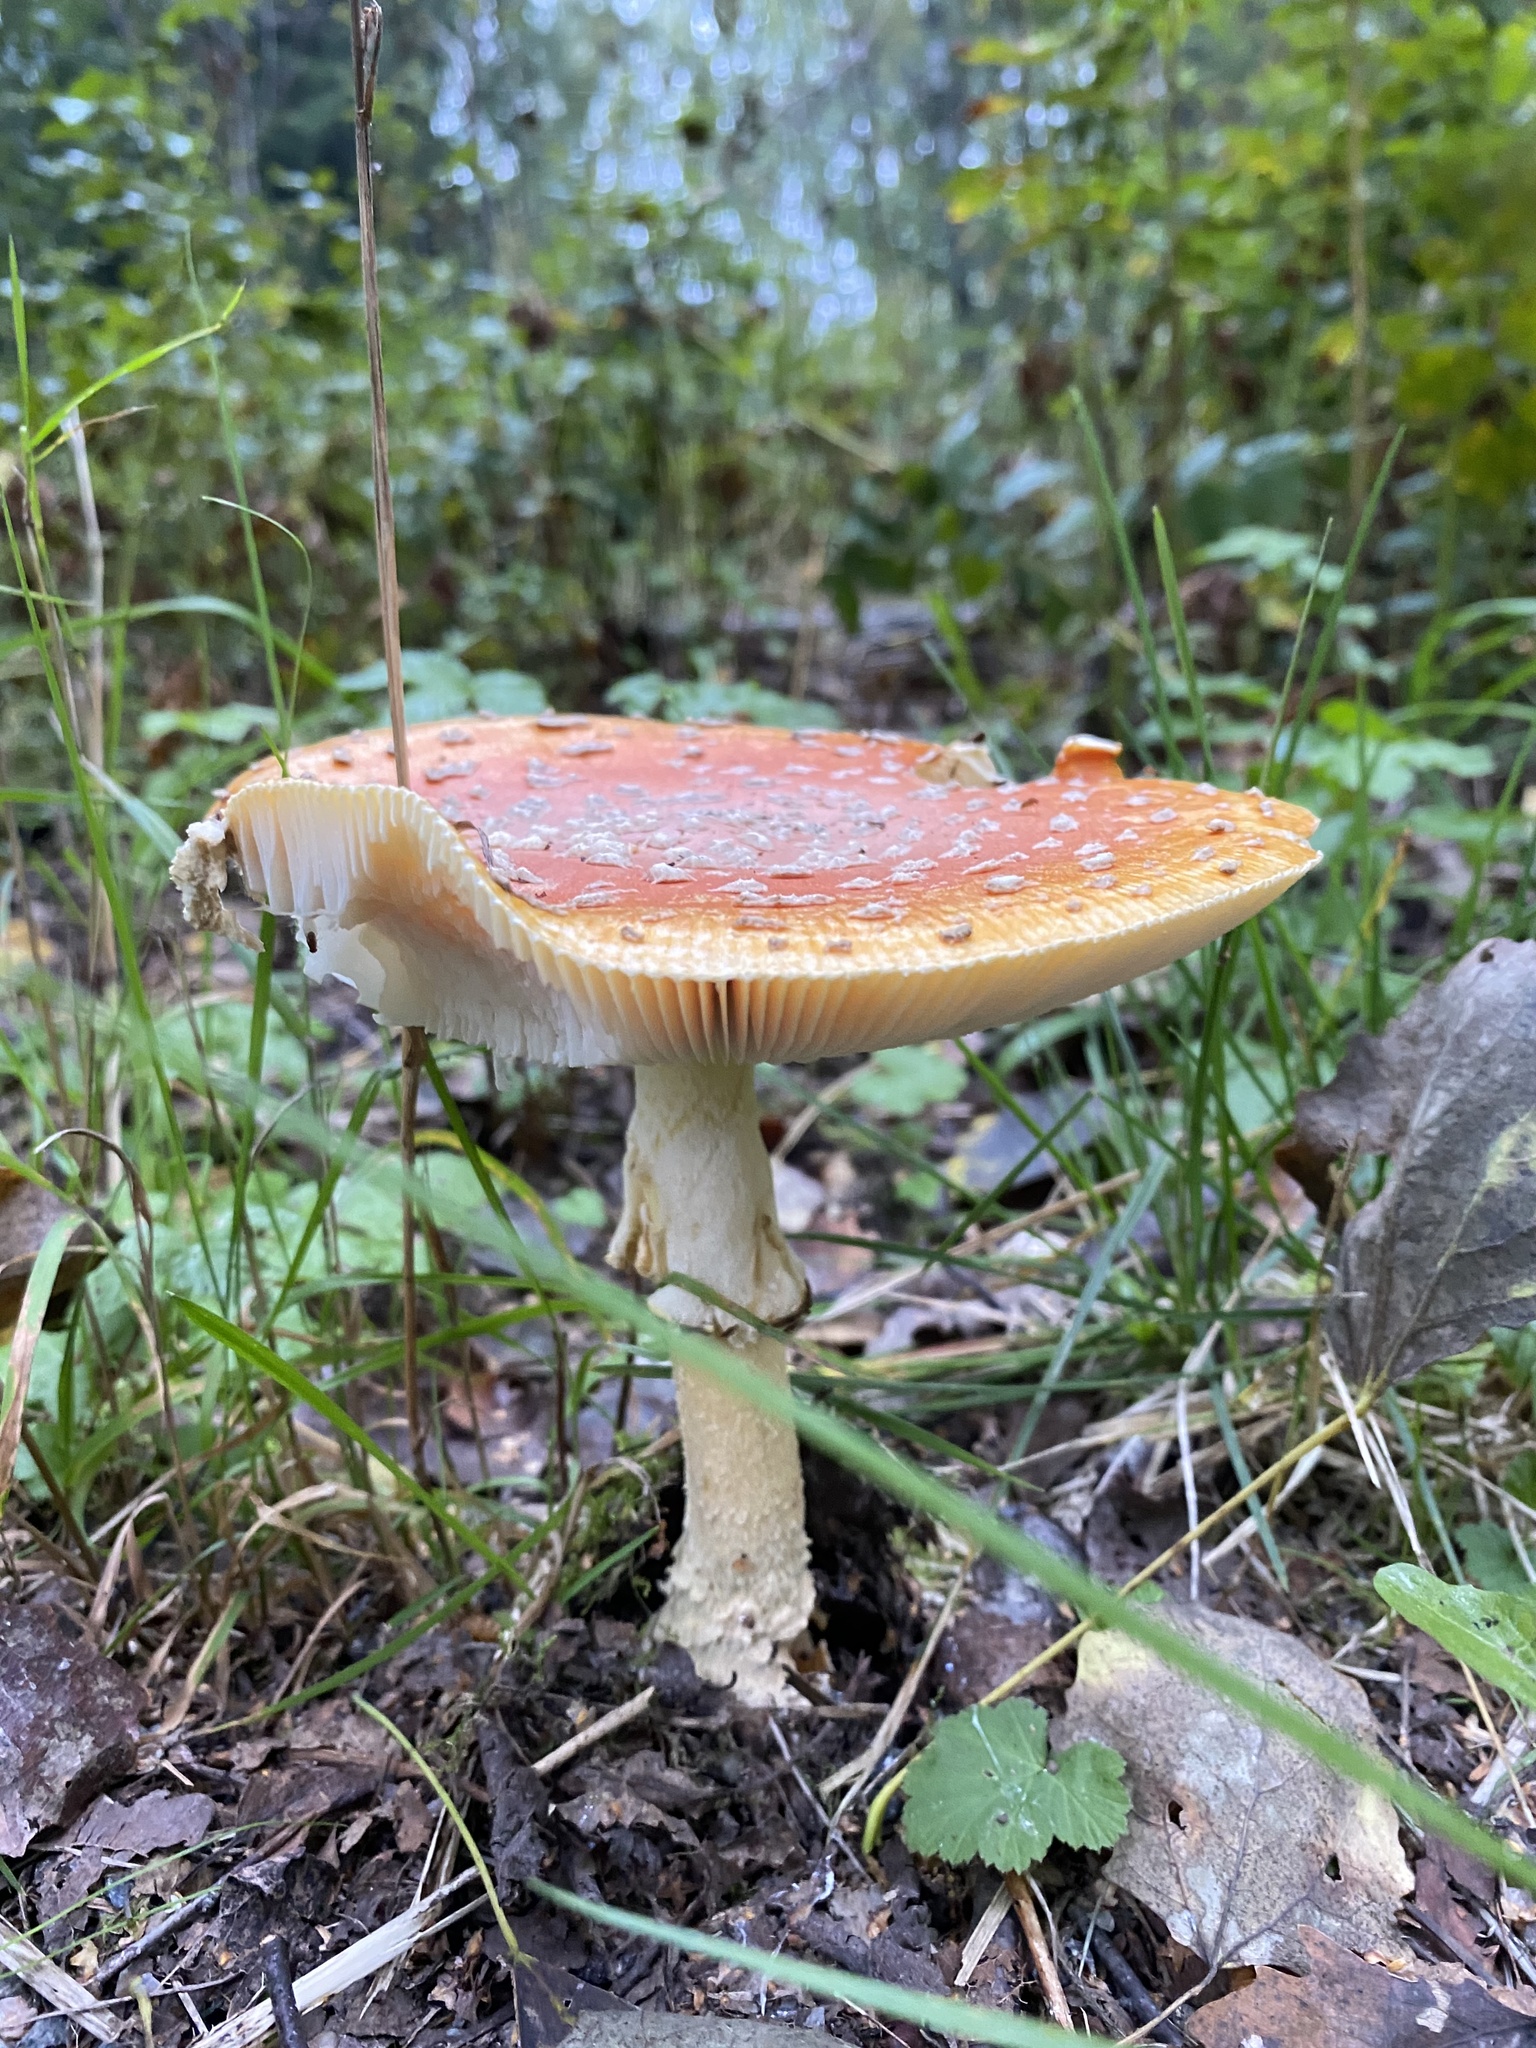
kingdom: Fungi
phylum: Basidiomycota
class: Agaricomycetes
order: Agaricales
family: Amanitaceae
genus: Amanita
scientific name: Amanita muscaria
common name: Fly agaric
